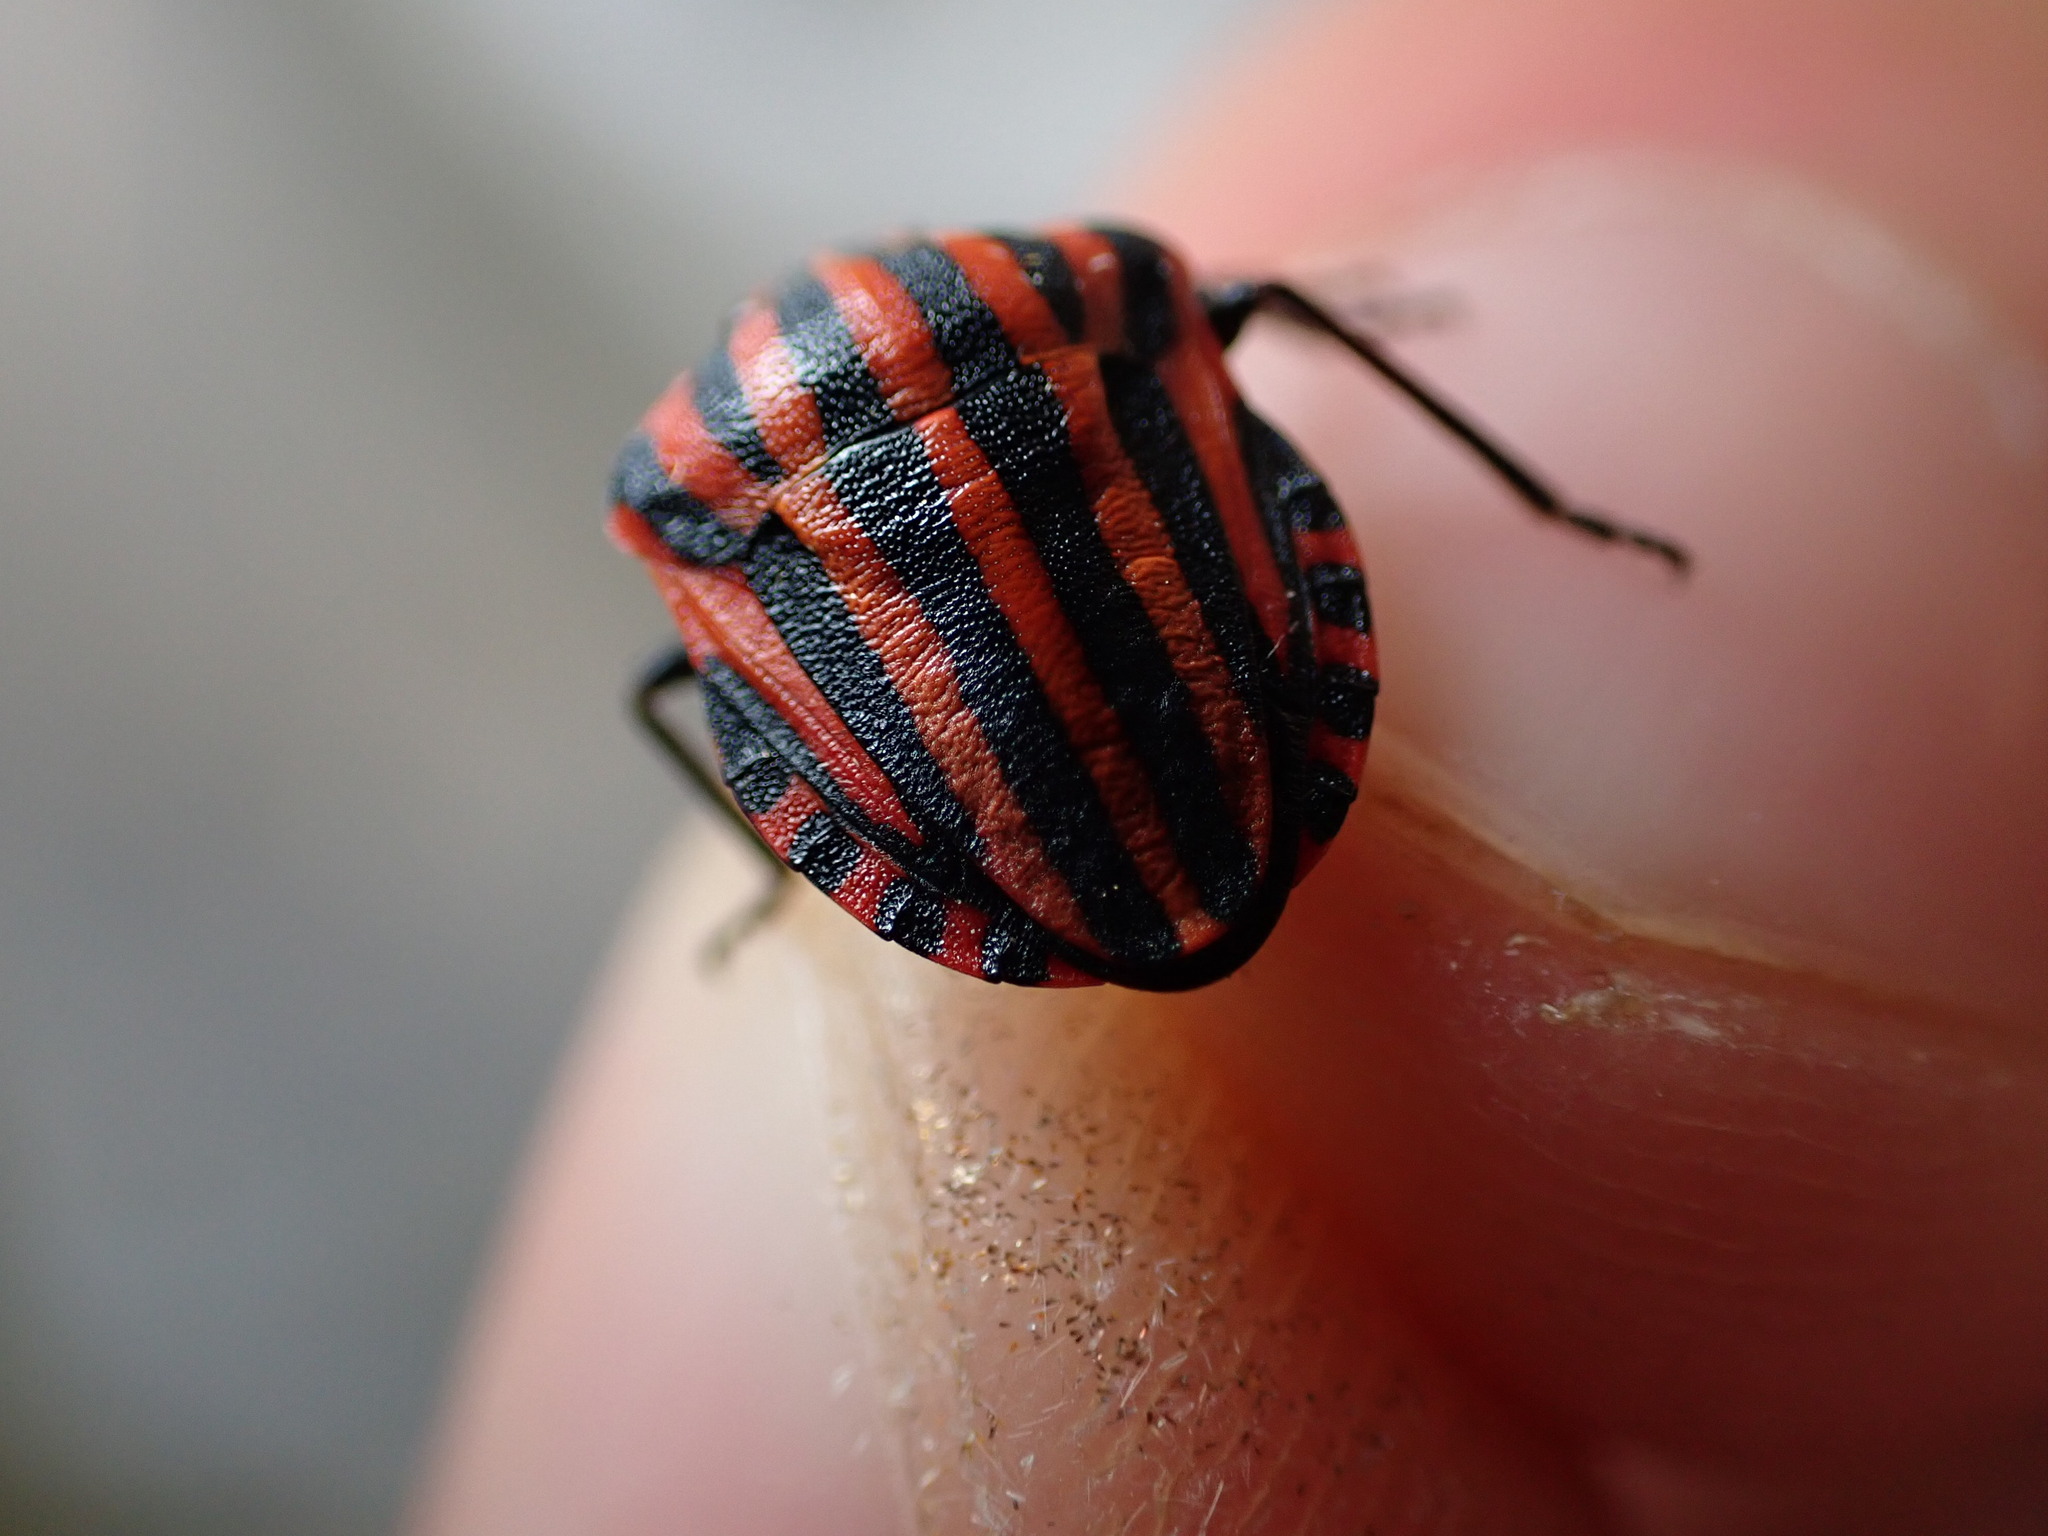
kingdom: Animalia
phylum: Arthropoda
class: Insecta
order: Hemiptera
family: Pentatomidae
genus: Graphosoma
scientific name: Graphosoma italicum
